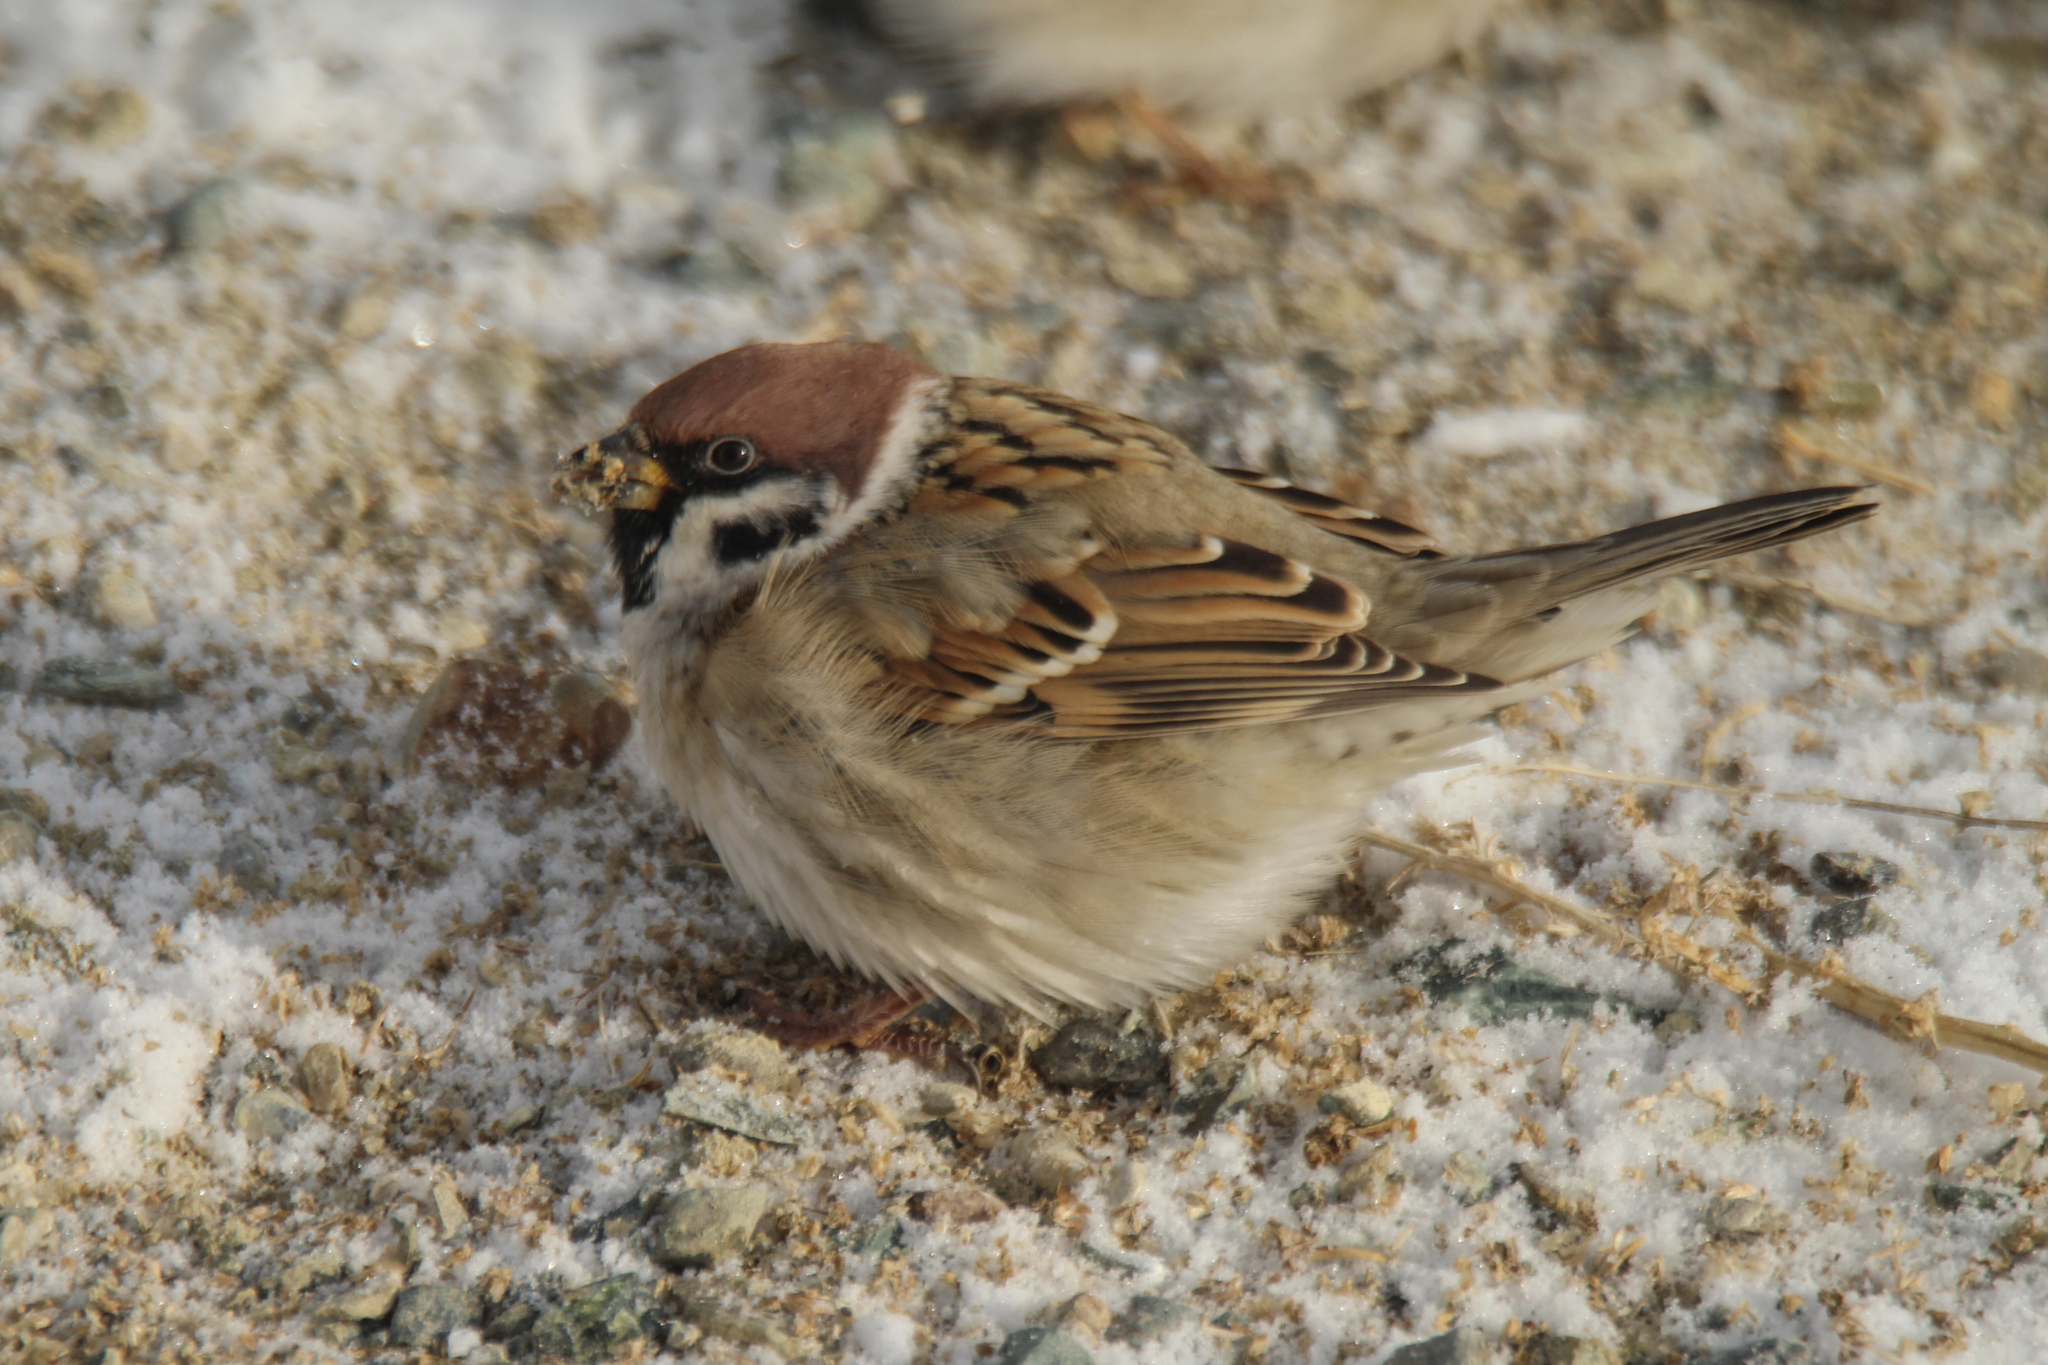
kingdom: Animalia
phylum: Chordata
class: Aves
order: Passeriformes
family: Passeridae
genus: Passer
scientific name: Passer montanus
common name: Eurasian tree sparrow
